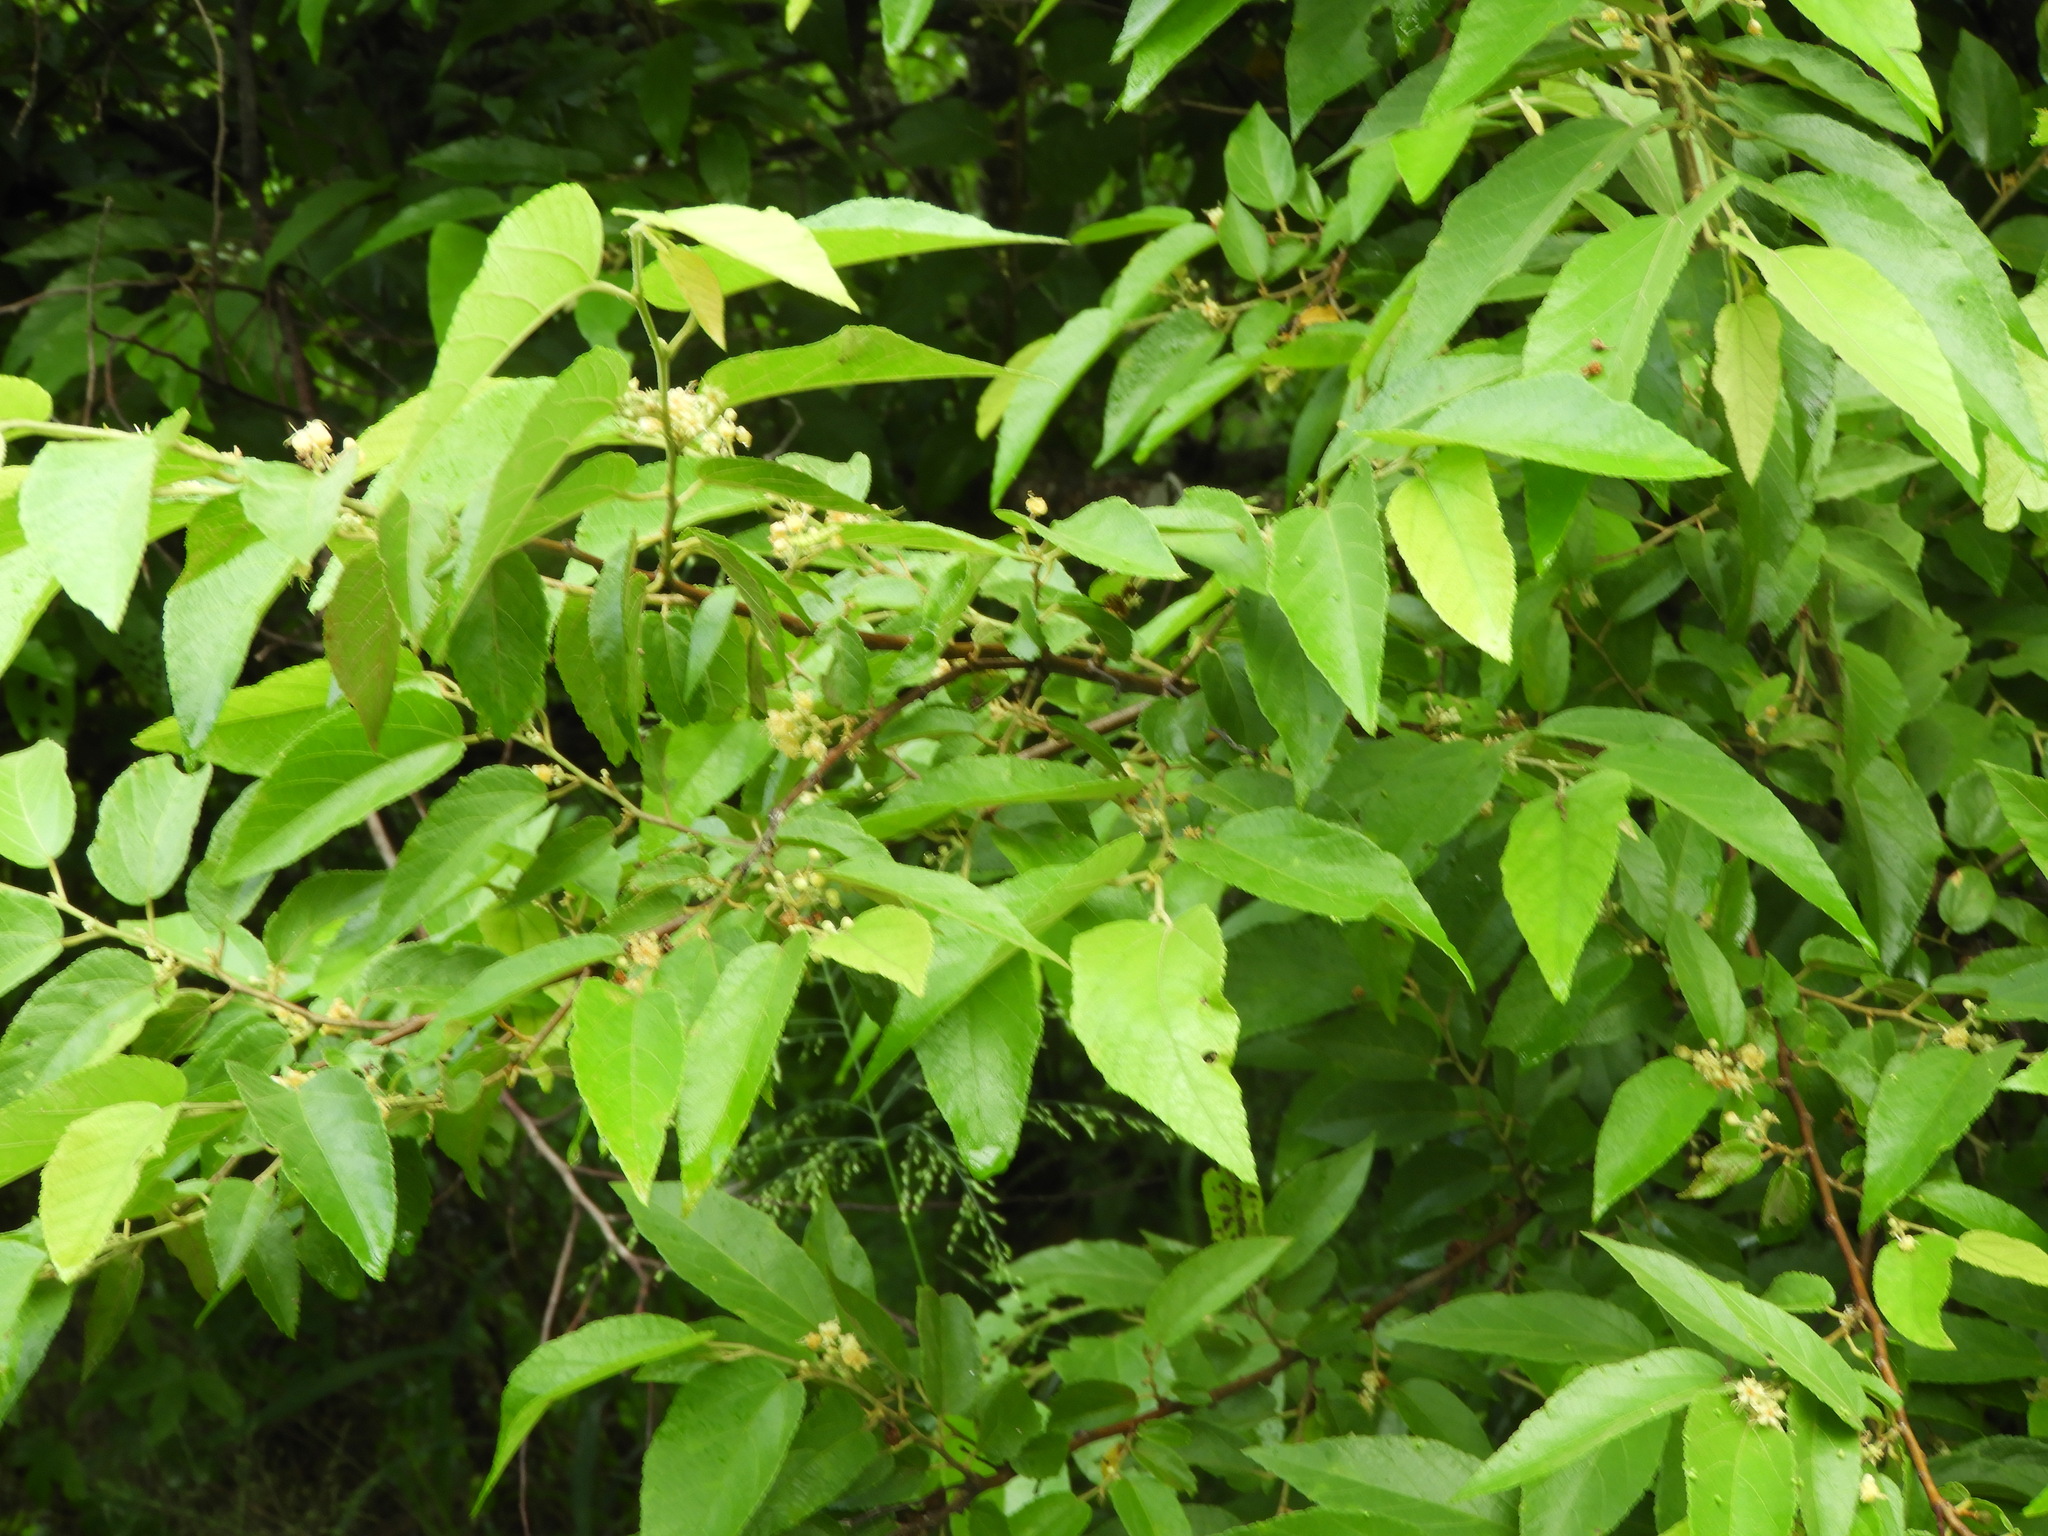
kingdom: Plantae
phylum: Tracheophyta
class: Magnoliopsida
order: Malvales
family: Malvaceae
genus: Guazuma
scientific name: Guazuma ulmifolia
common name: Bastard-cedar
